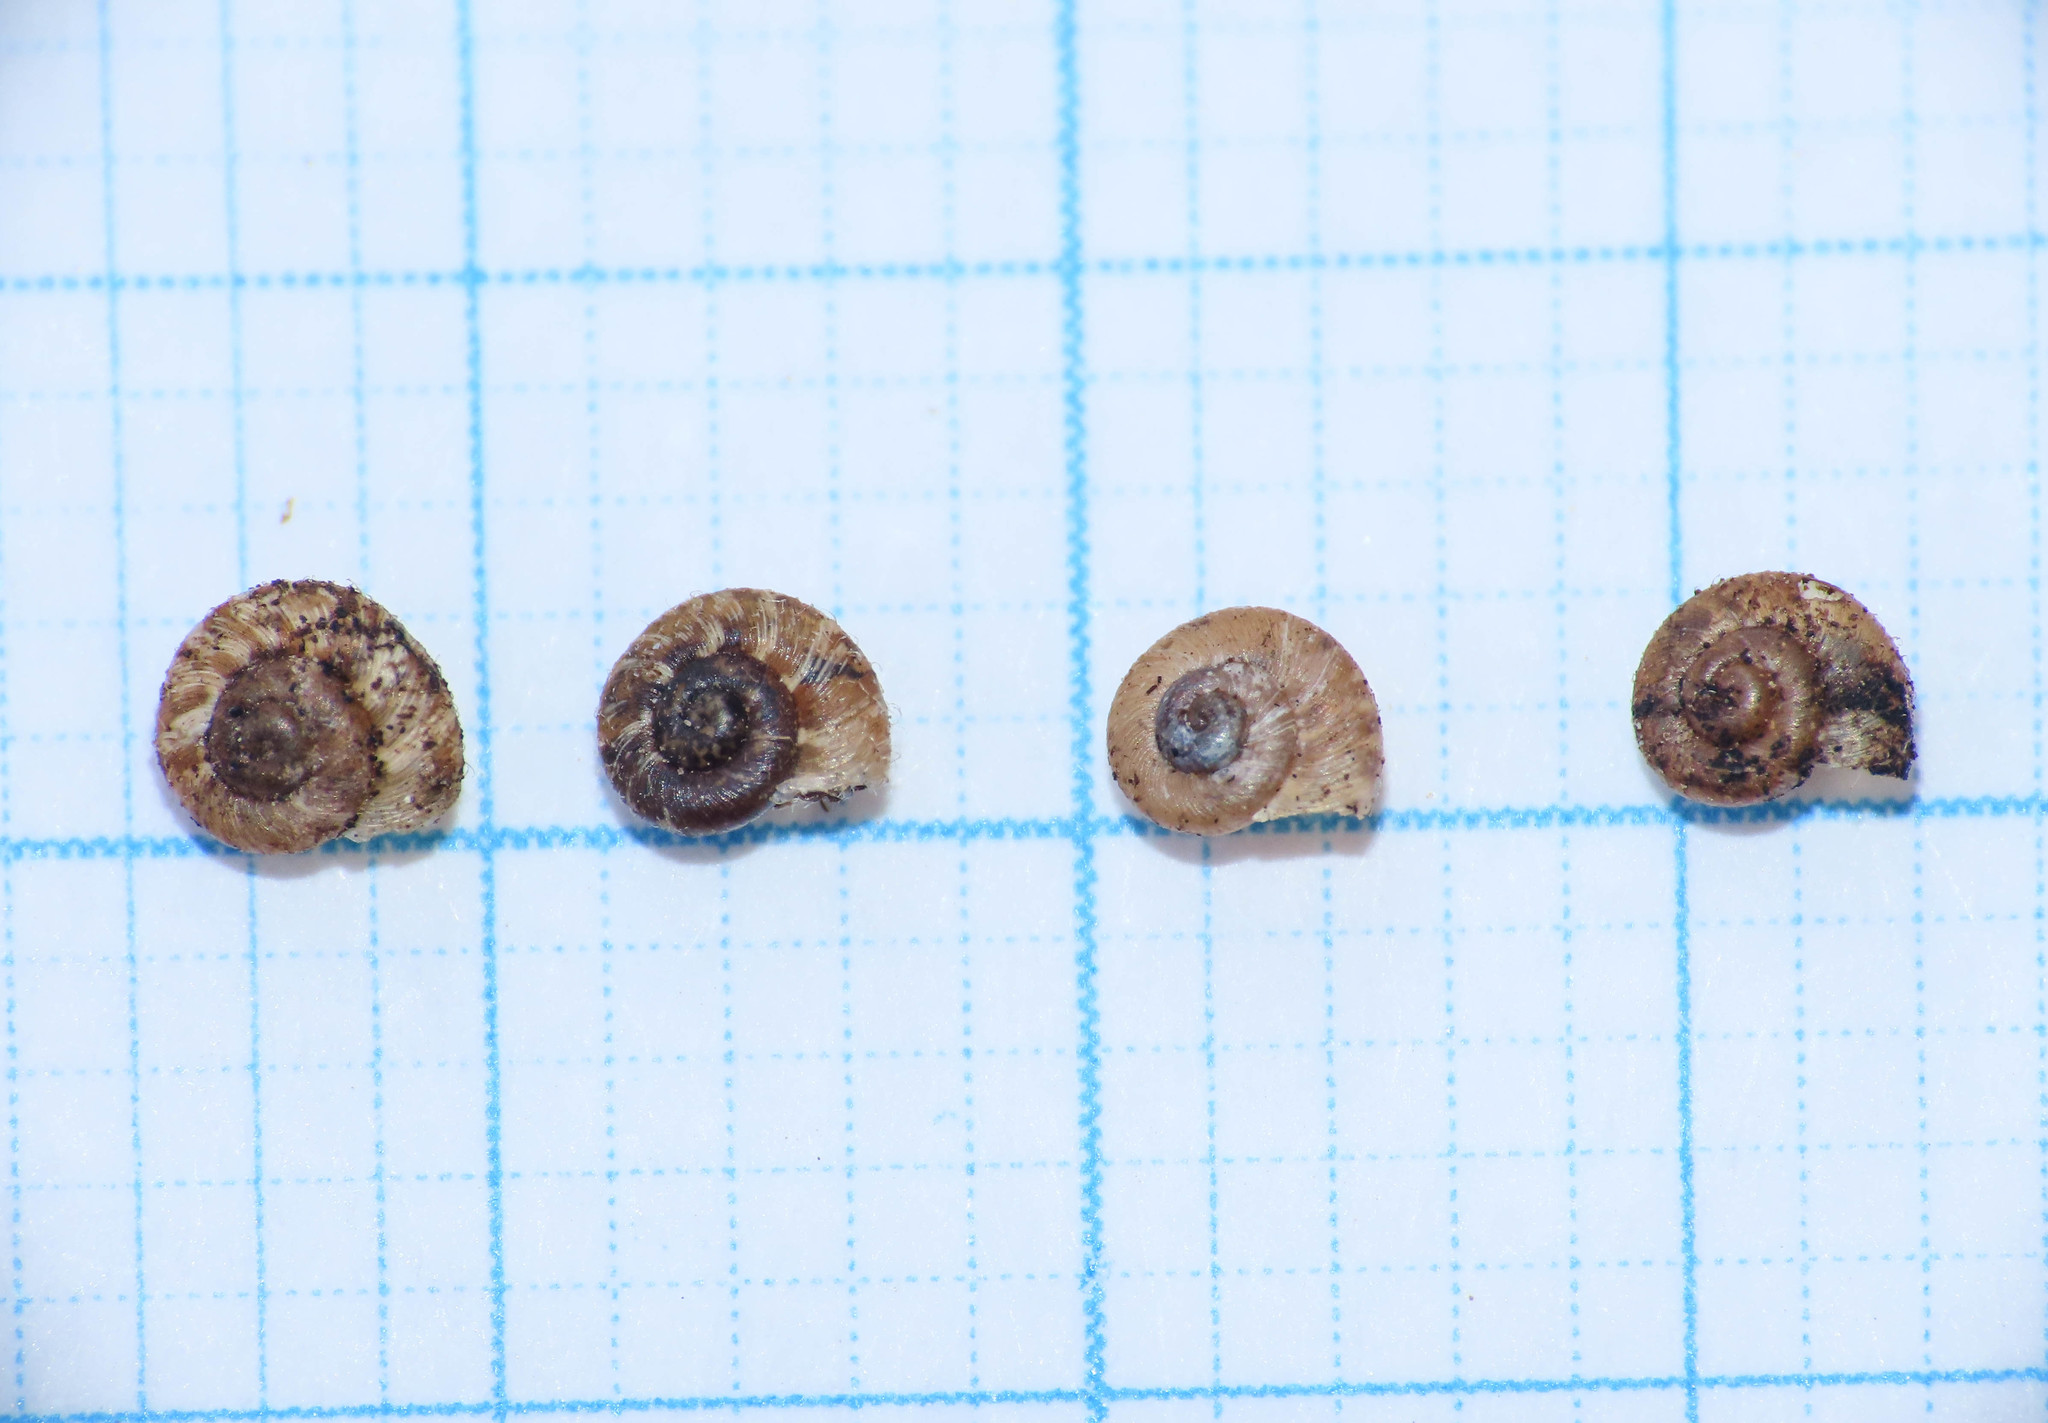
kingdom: Animalia
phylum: Mollusca
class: Gastropoda
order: Stylommatophora
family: Geomitridae
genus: Xerotricha
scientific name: Xerotricha conspurcata
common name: Snail
